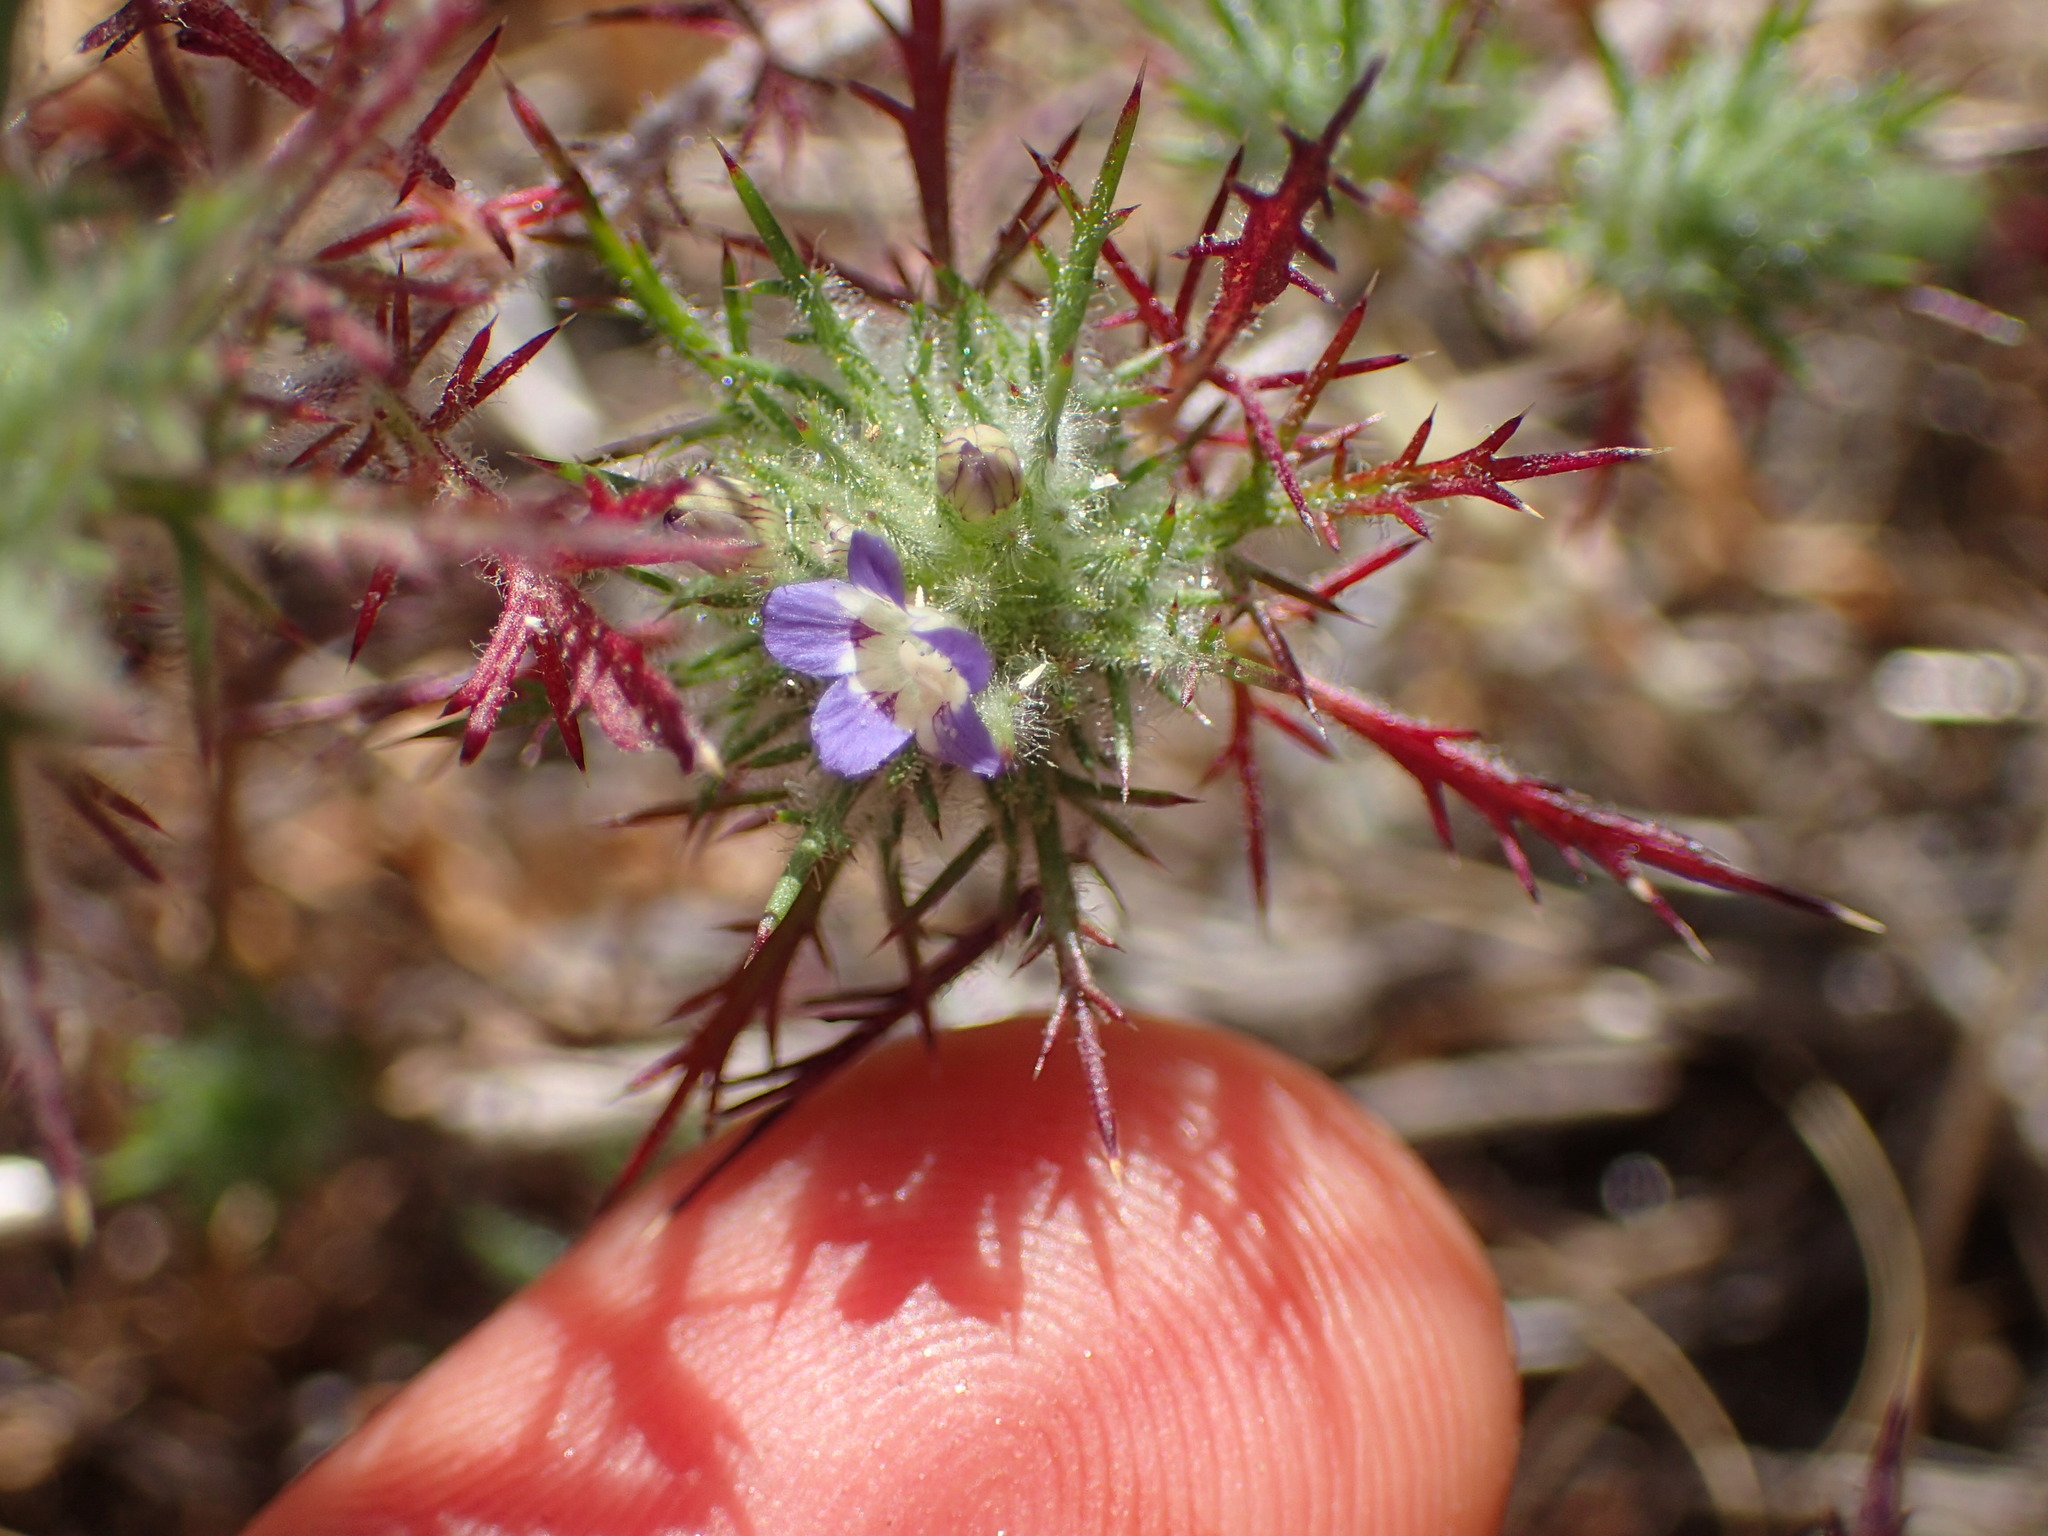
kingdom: Plantae
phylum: Tracheophyta
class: Magnoliopsida
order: Ericales
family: Polemoniaceae
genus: Navarretia
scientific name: Navarretia pubescens
